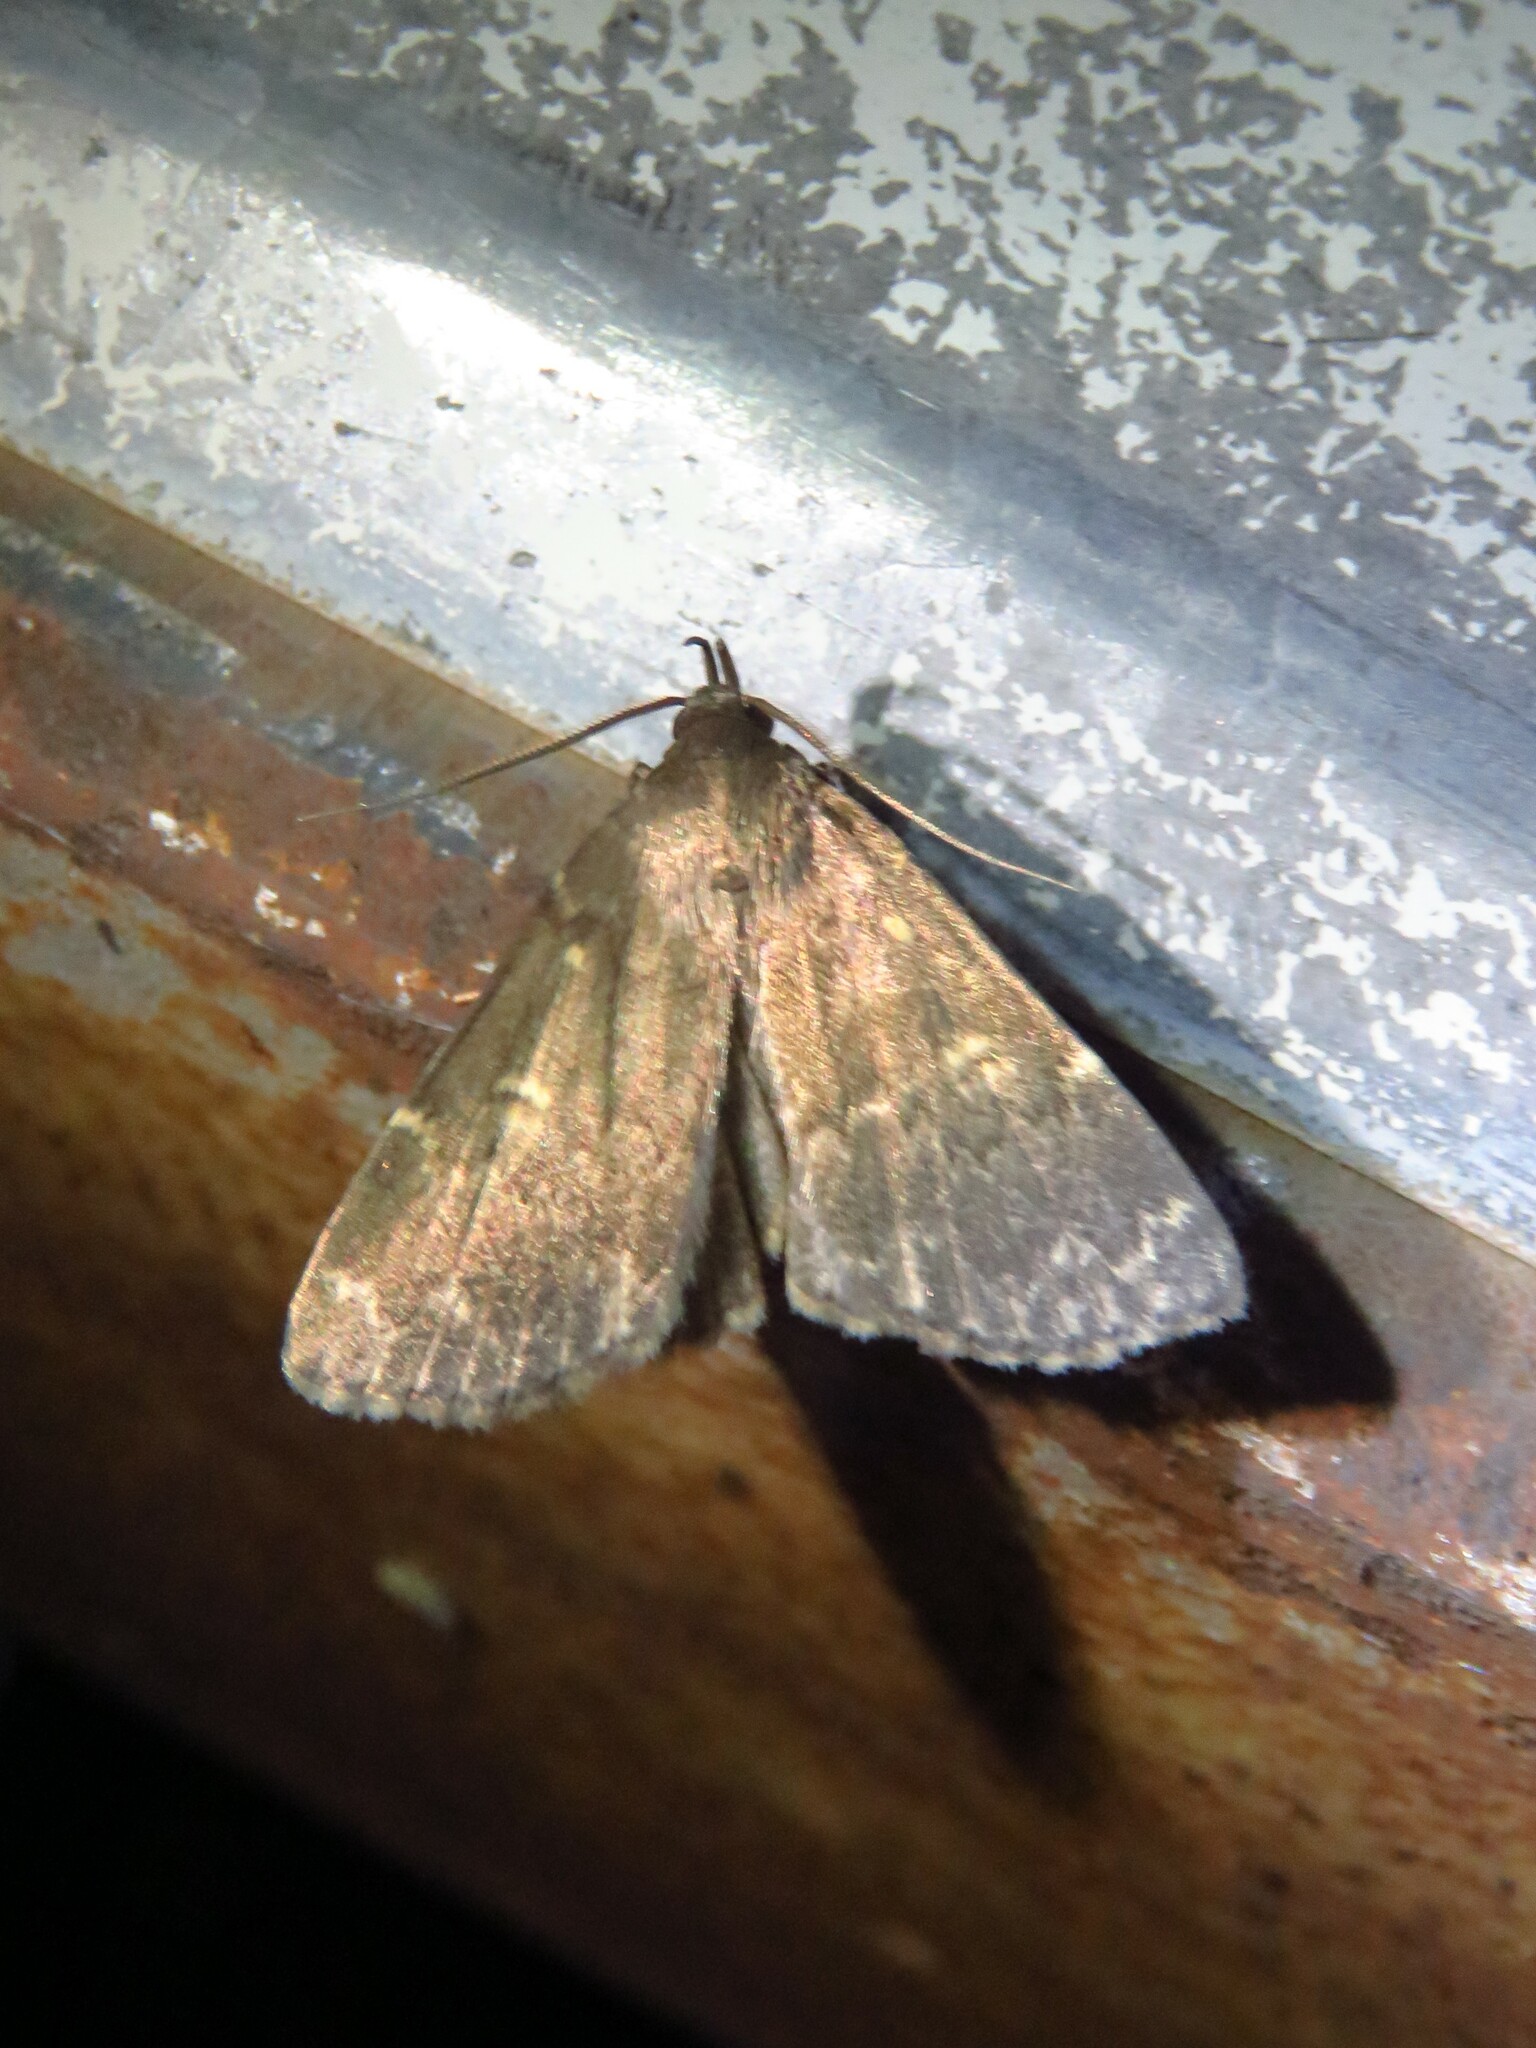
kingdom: Animalia
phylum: Arthropoda
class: Insecta
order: Lepidoptera
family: Erebidae
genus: Idia
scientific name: Idia lubricalis
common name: Twin-striped tabby
